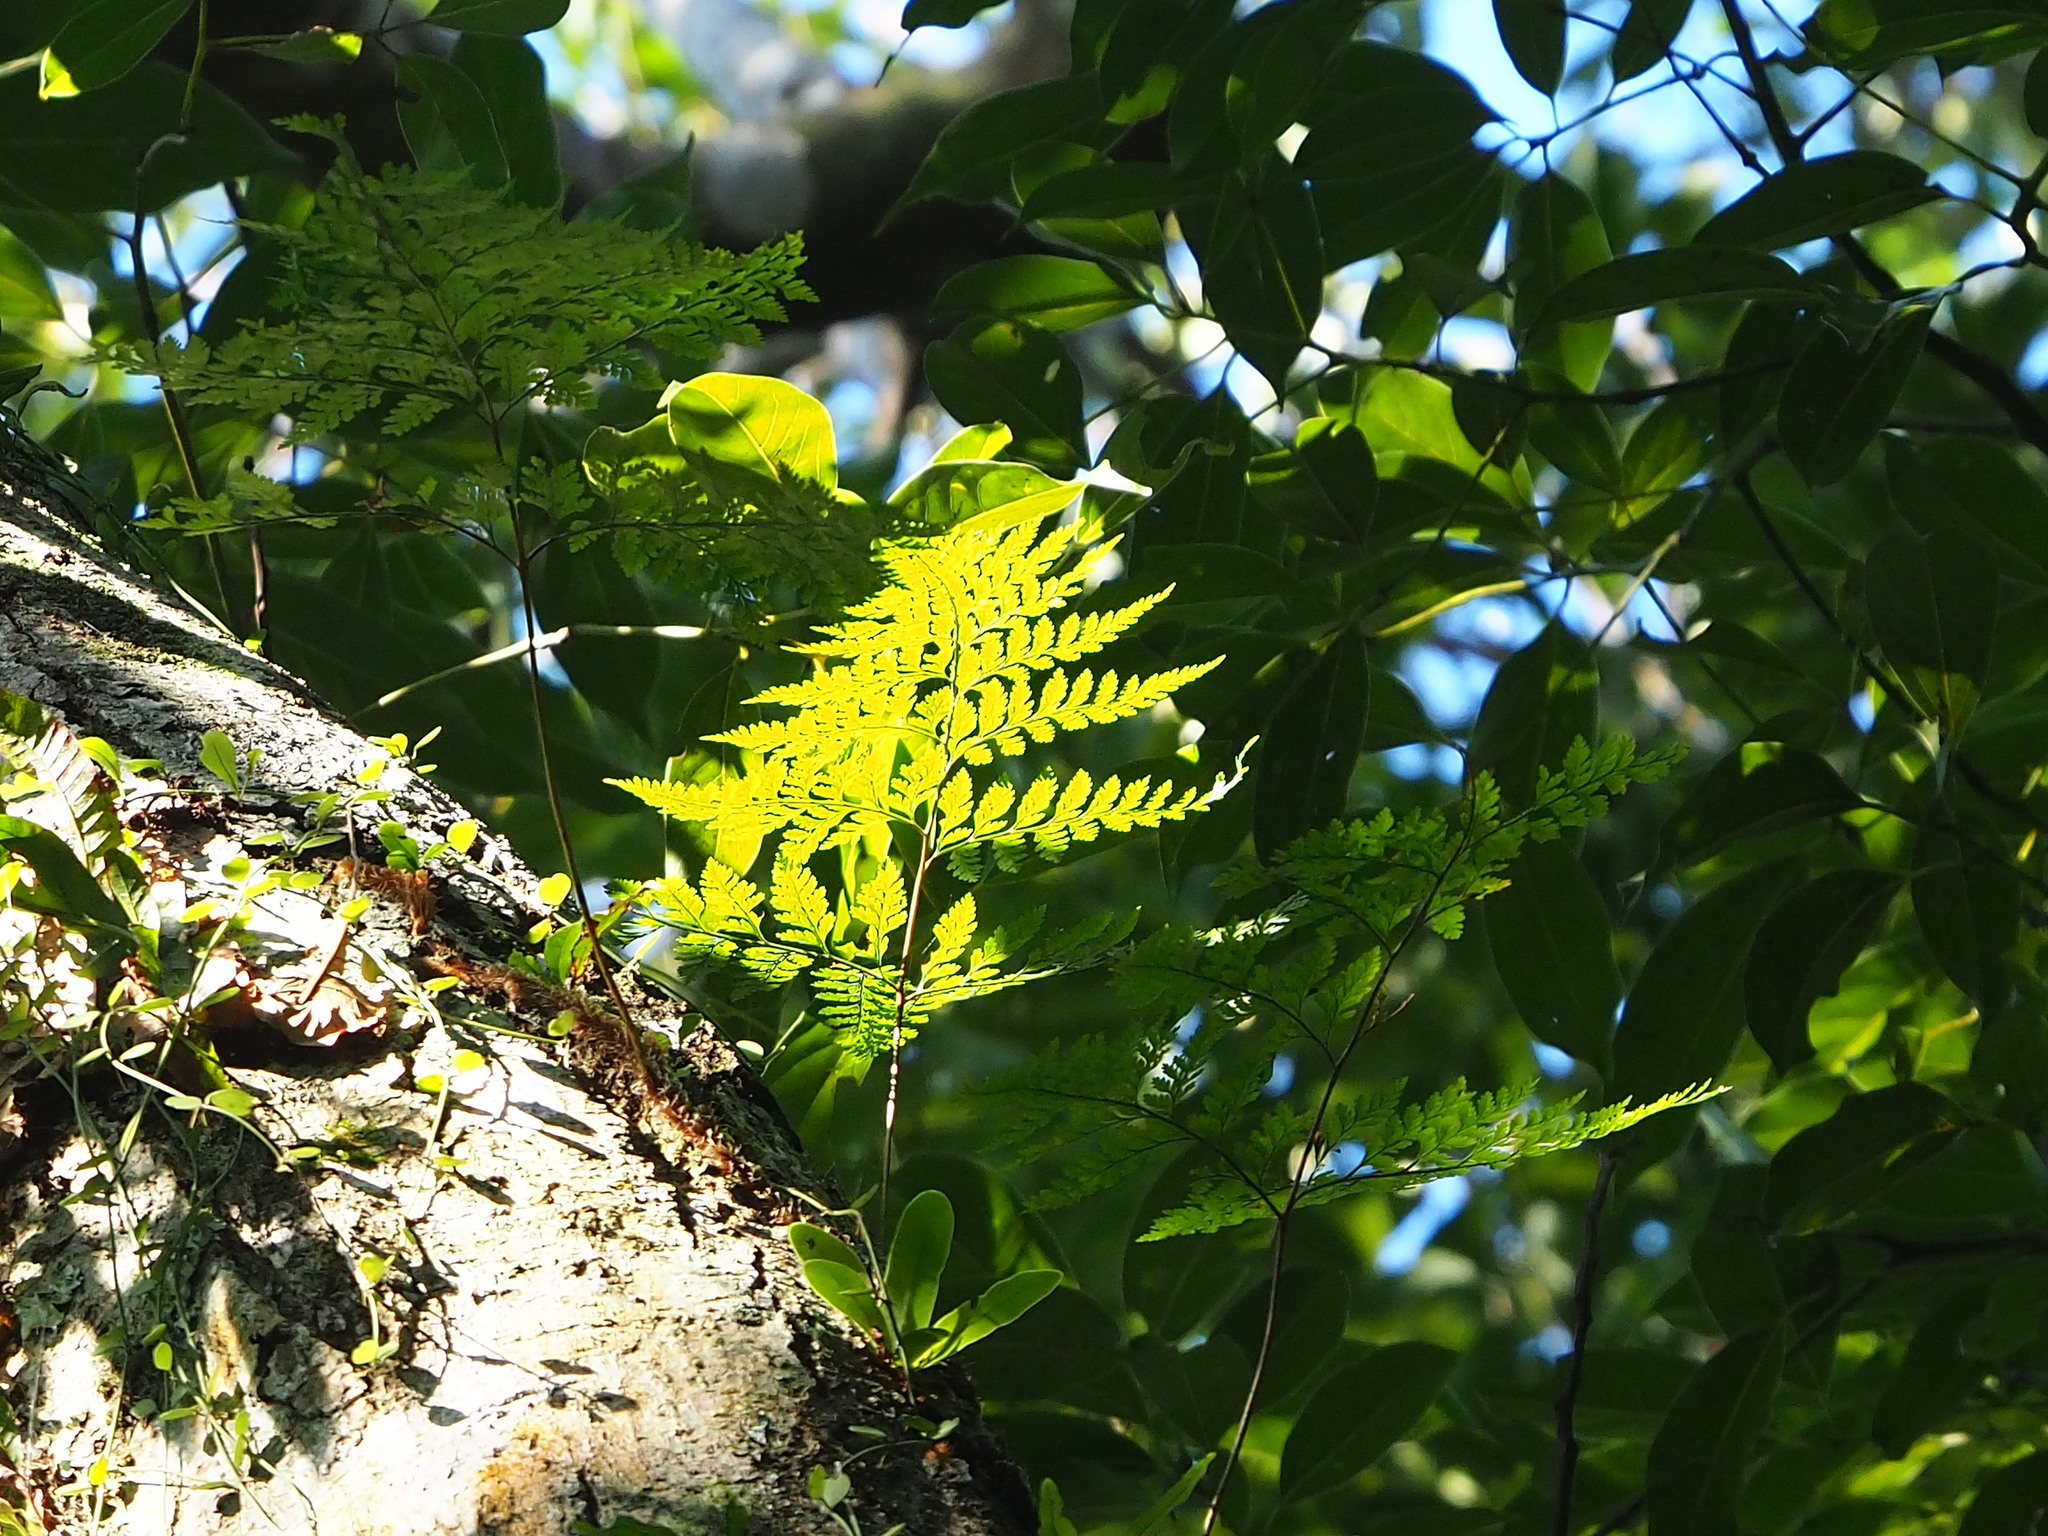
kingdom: Plantae
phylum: Tracheophyta
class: Polypodiopsida
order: Polypodiales
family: Davalliaceae
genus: Davallia
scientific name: Davallia trichomanoides
